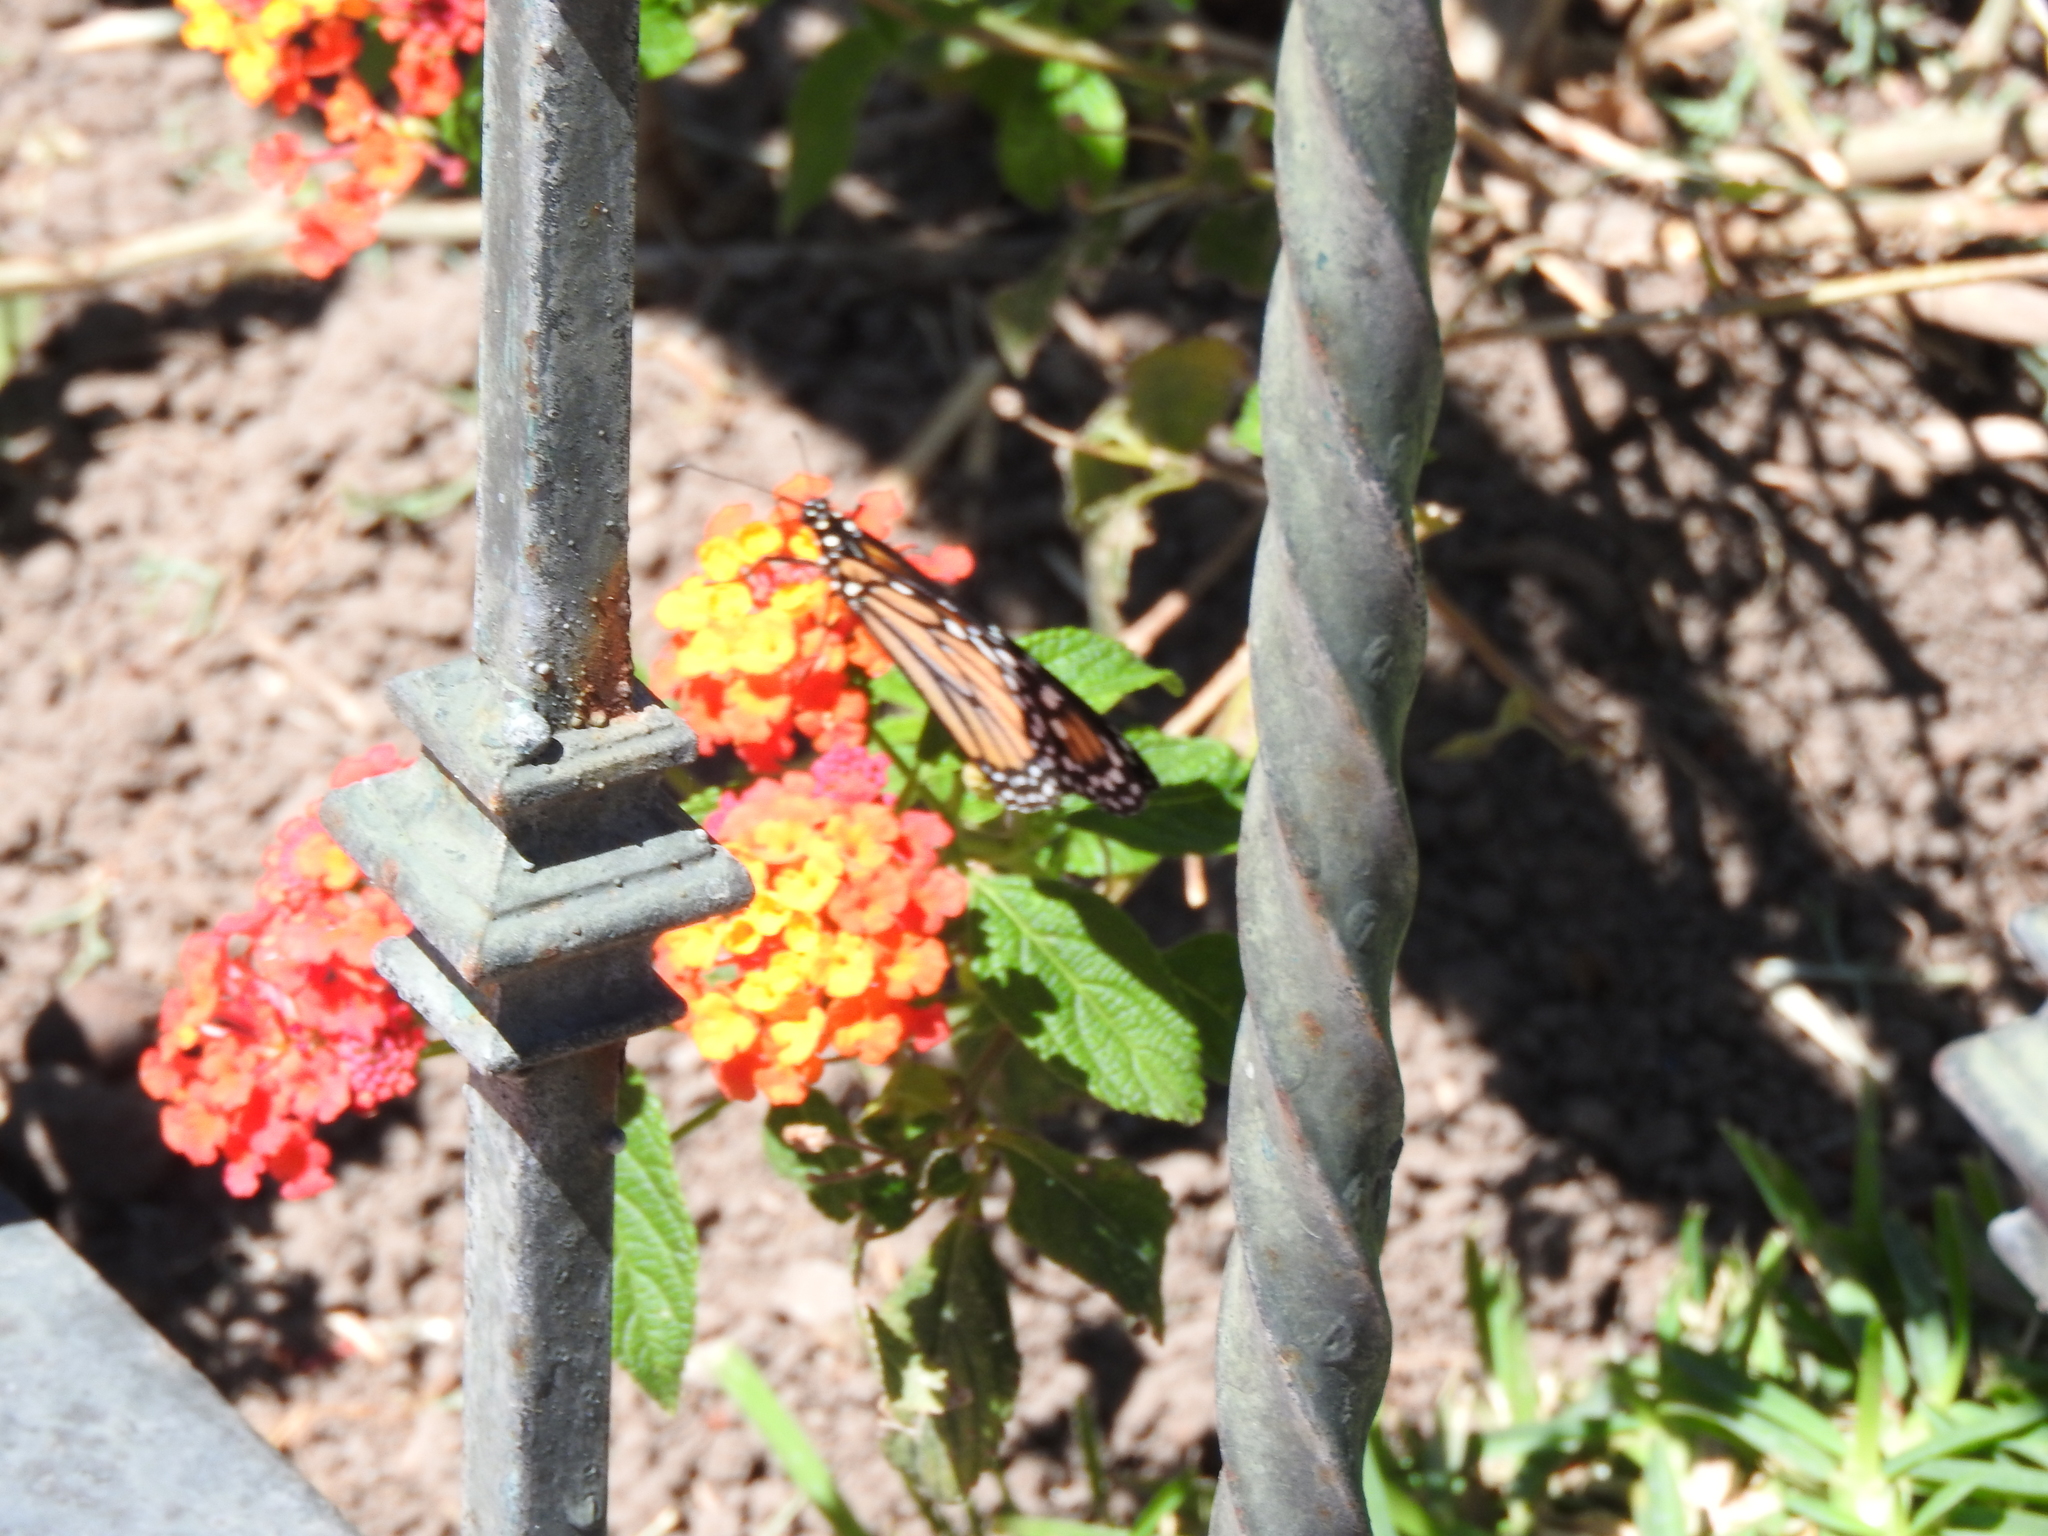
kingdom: Animalia
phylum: Arthropoda
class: Insecta
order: Lepidoptera
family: Nymphalidae
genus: Danaus
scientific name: Danaus plexippus
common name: Monarch
